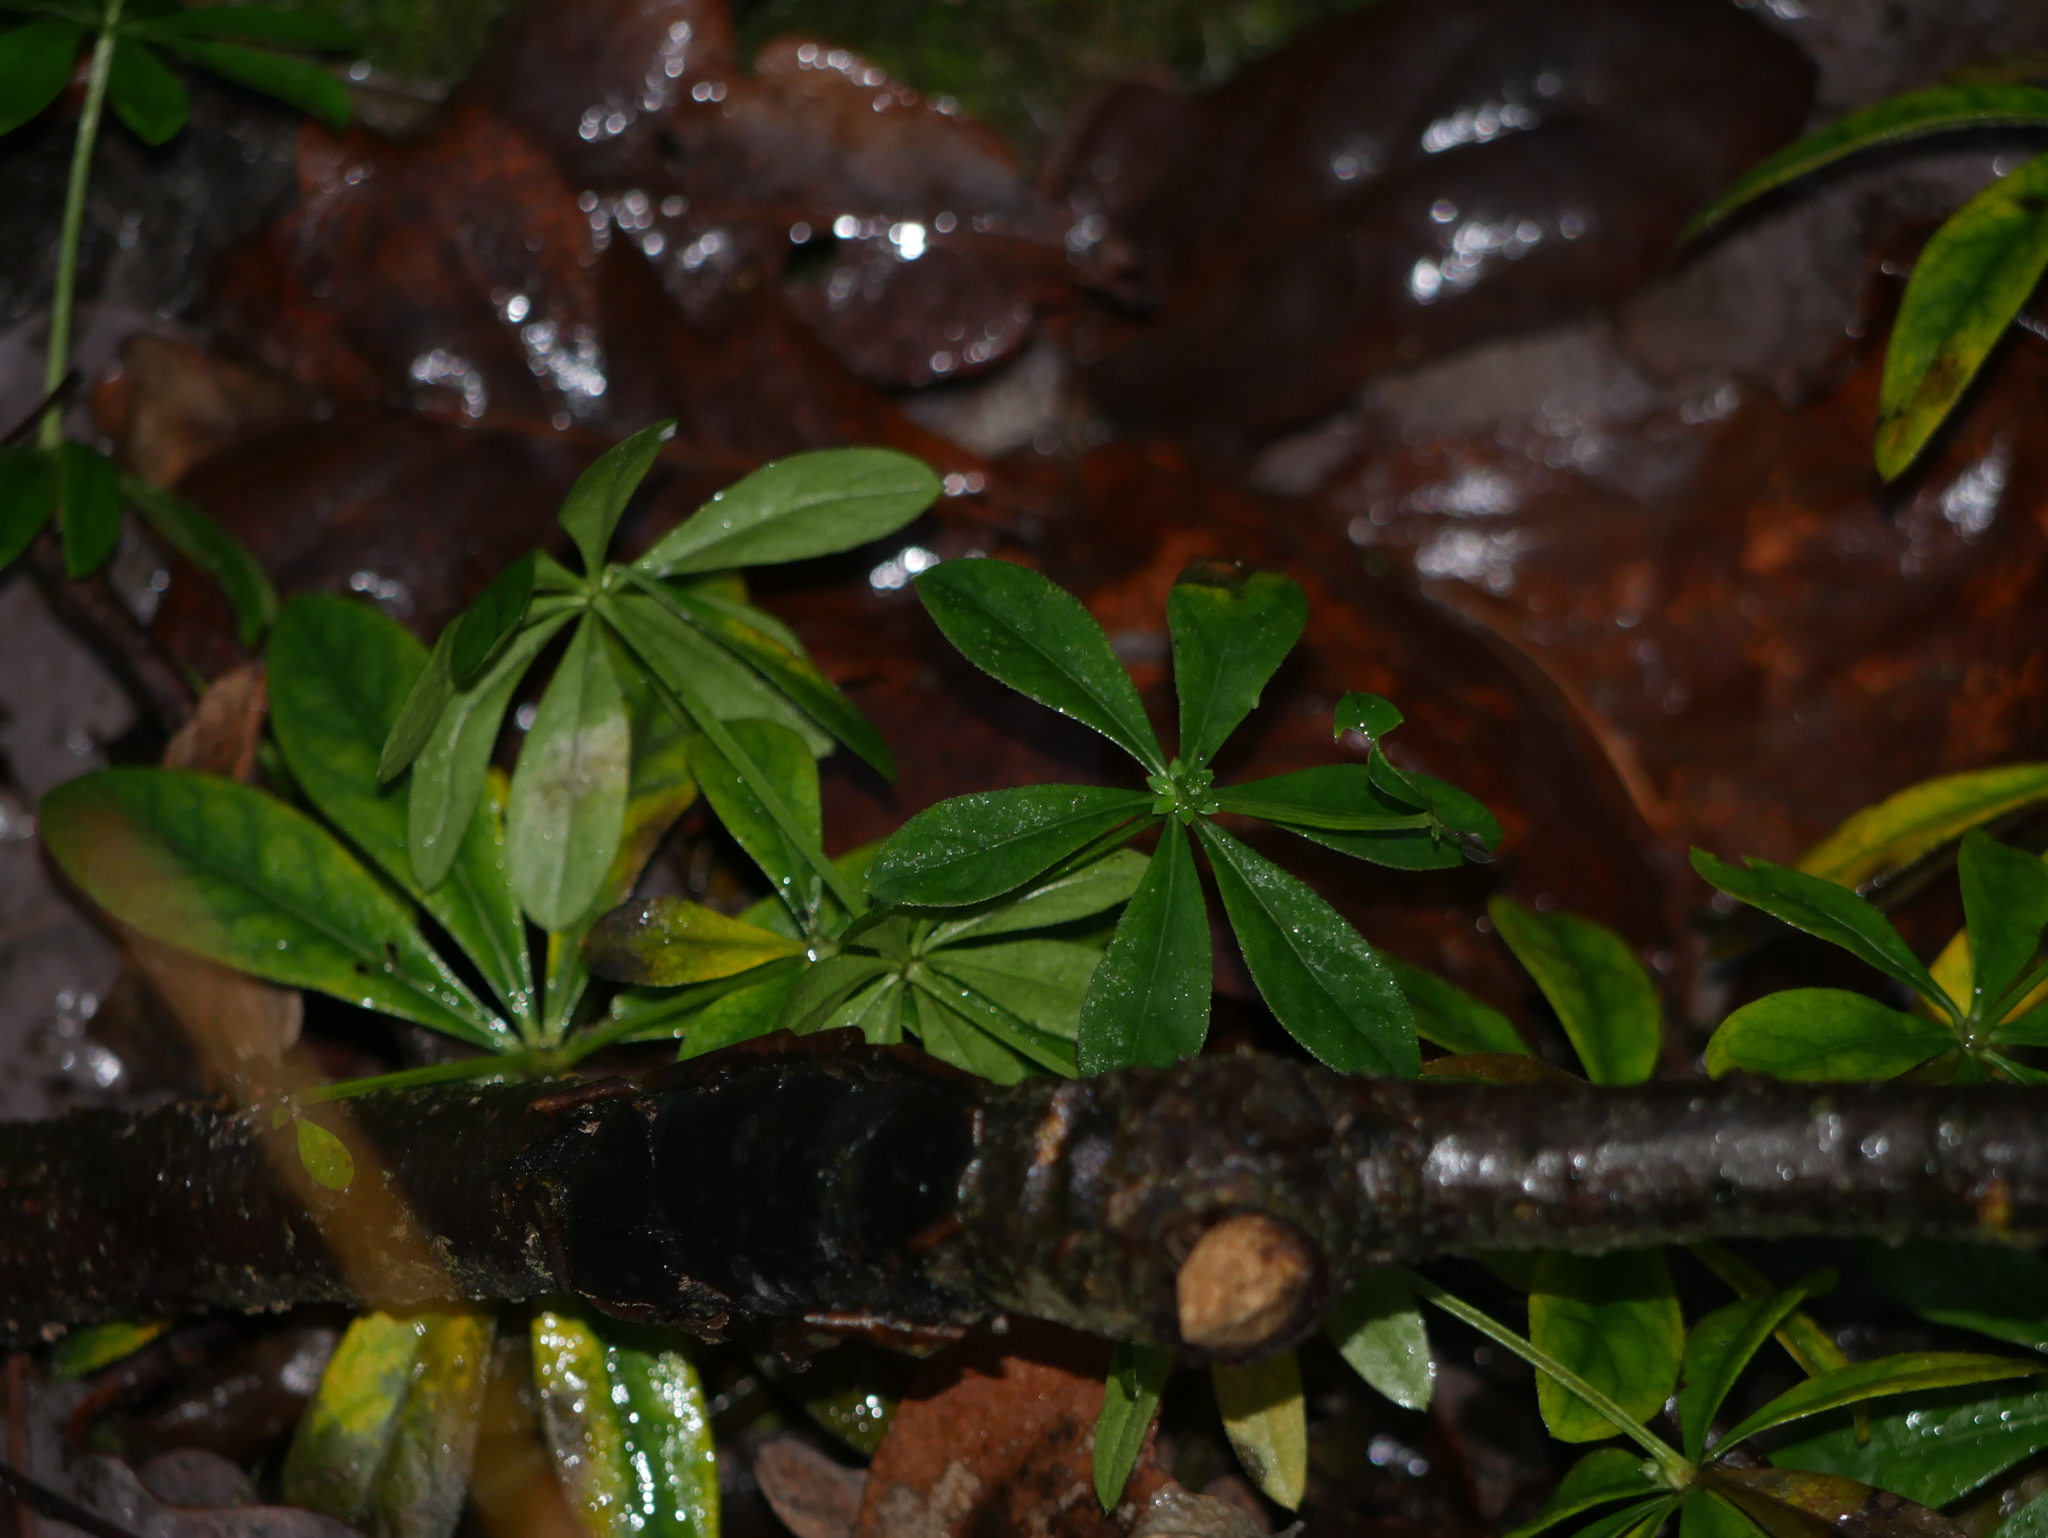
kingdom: Plantae
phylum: Tracheophyta
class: Magnoliopsida
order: Gentianales
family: Rubiaceae
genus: Galium
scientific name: Galium odoratum
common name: Sweet woodruff
